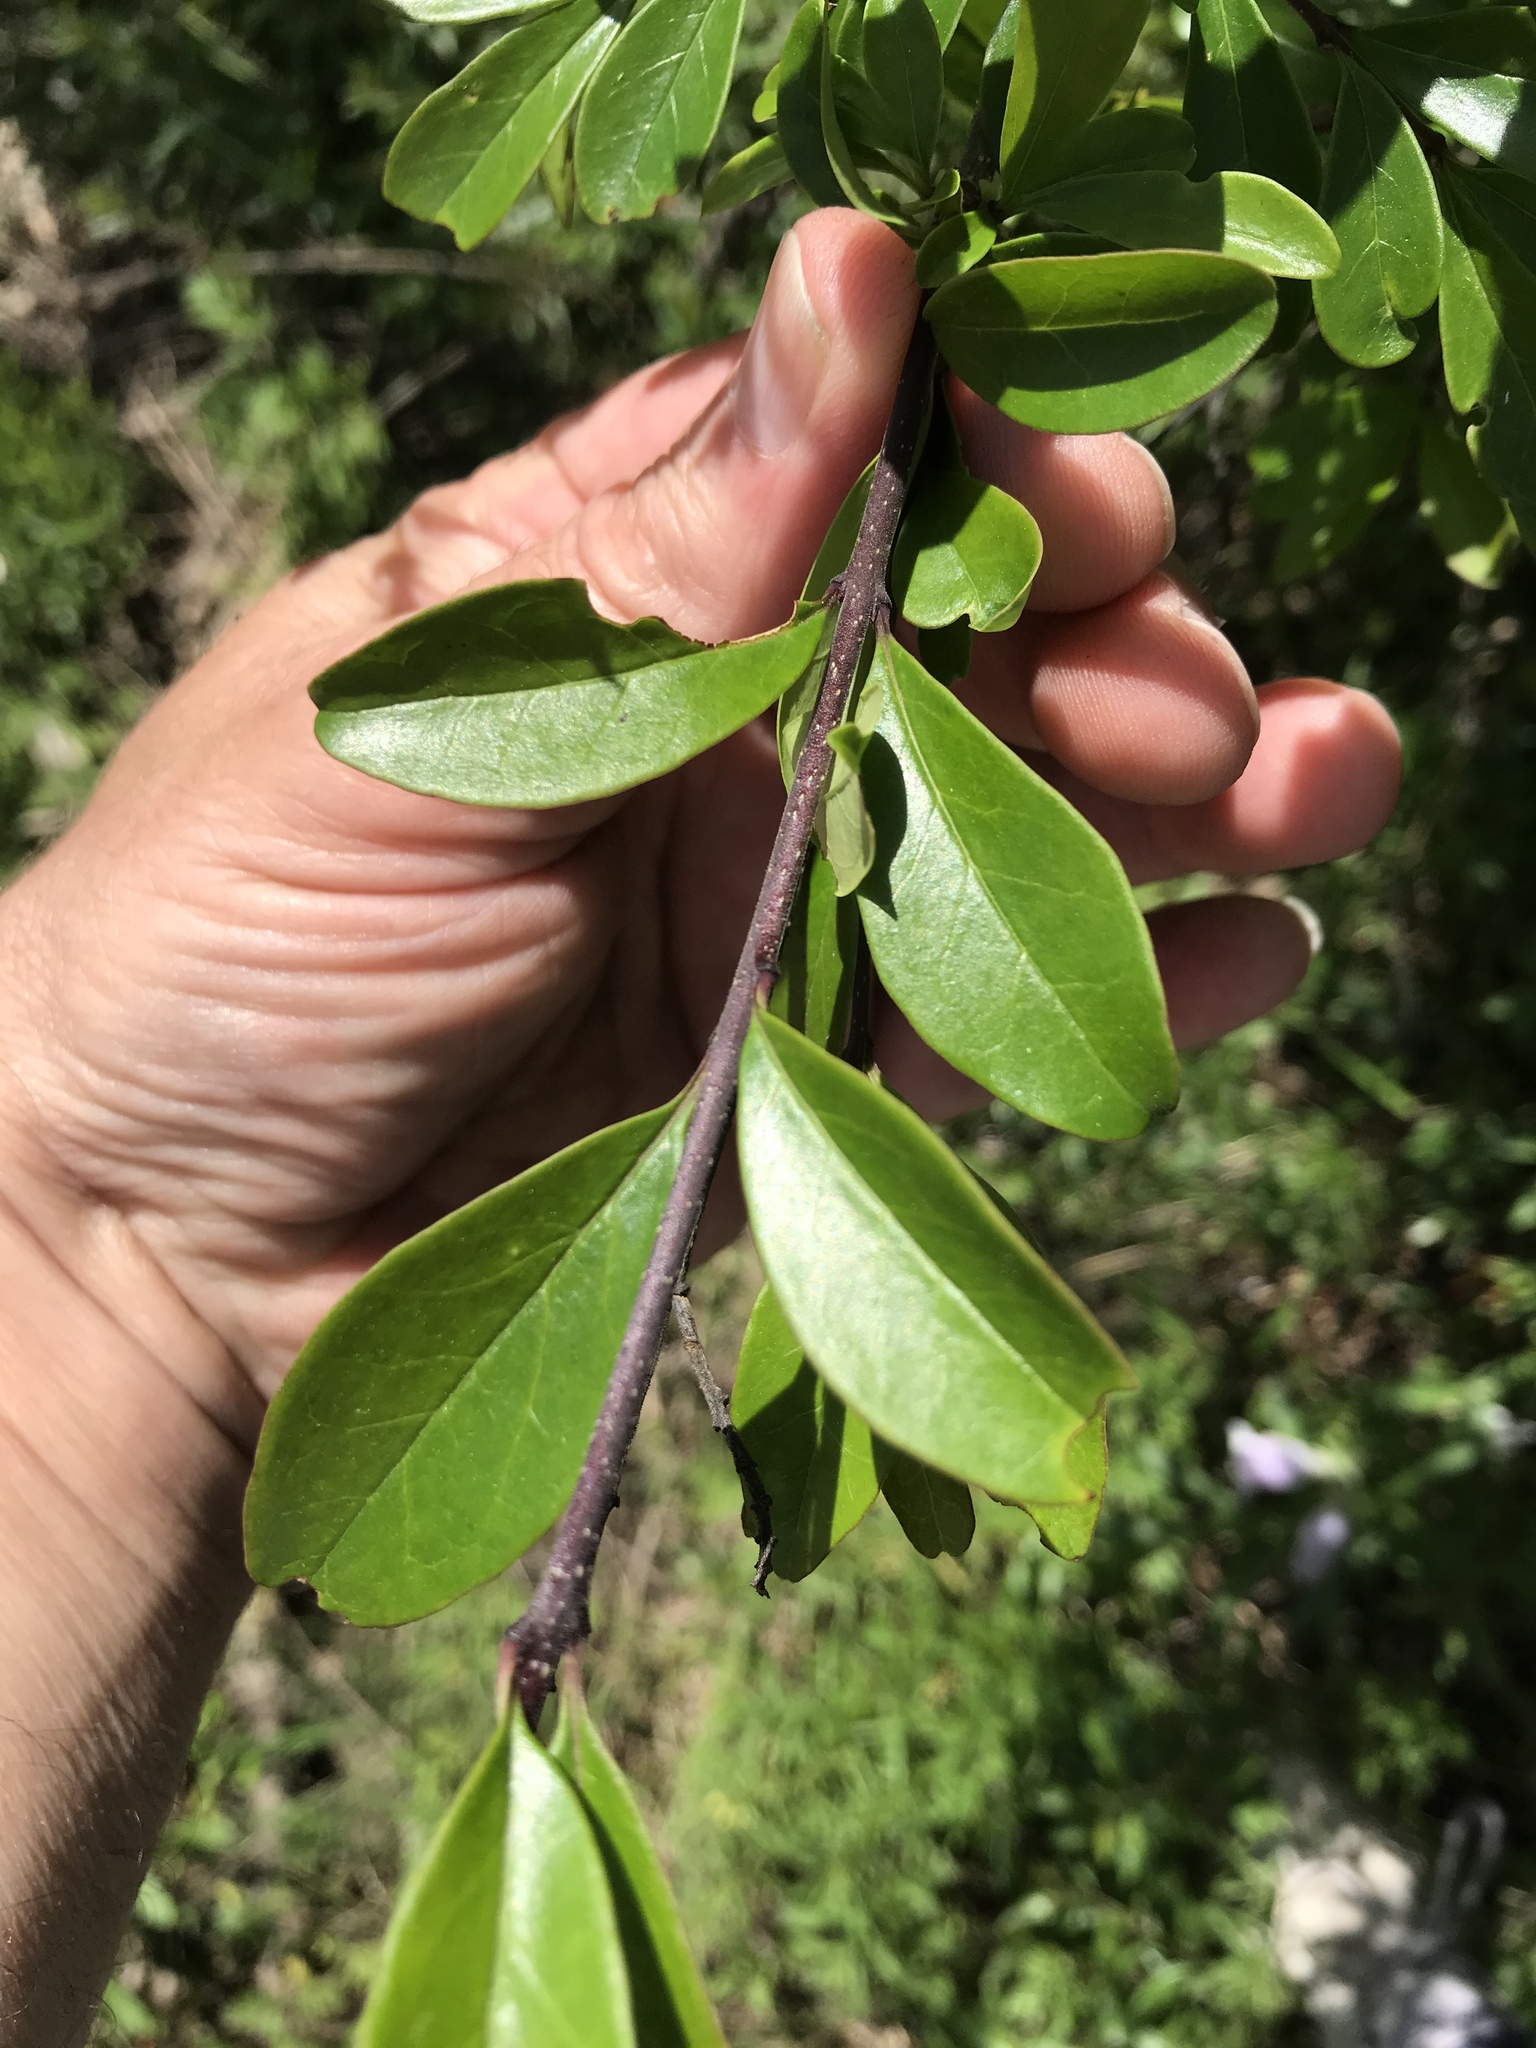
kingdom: Plantae
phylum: Tracheophyta
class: Magnoliopsida
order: Lamiales
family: Oleaceae
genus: Ligustrum
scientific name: Ligustrum quihoui
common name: Waxyleaf privet
